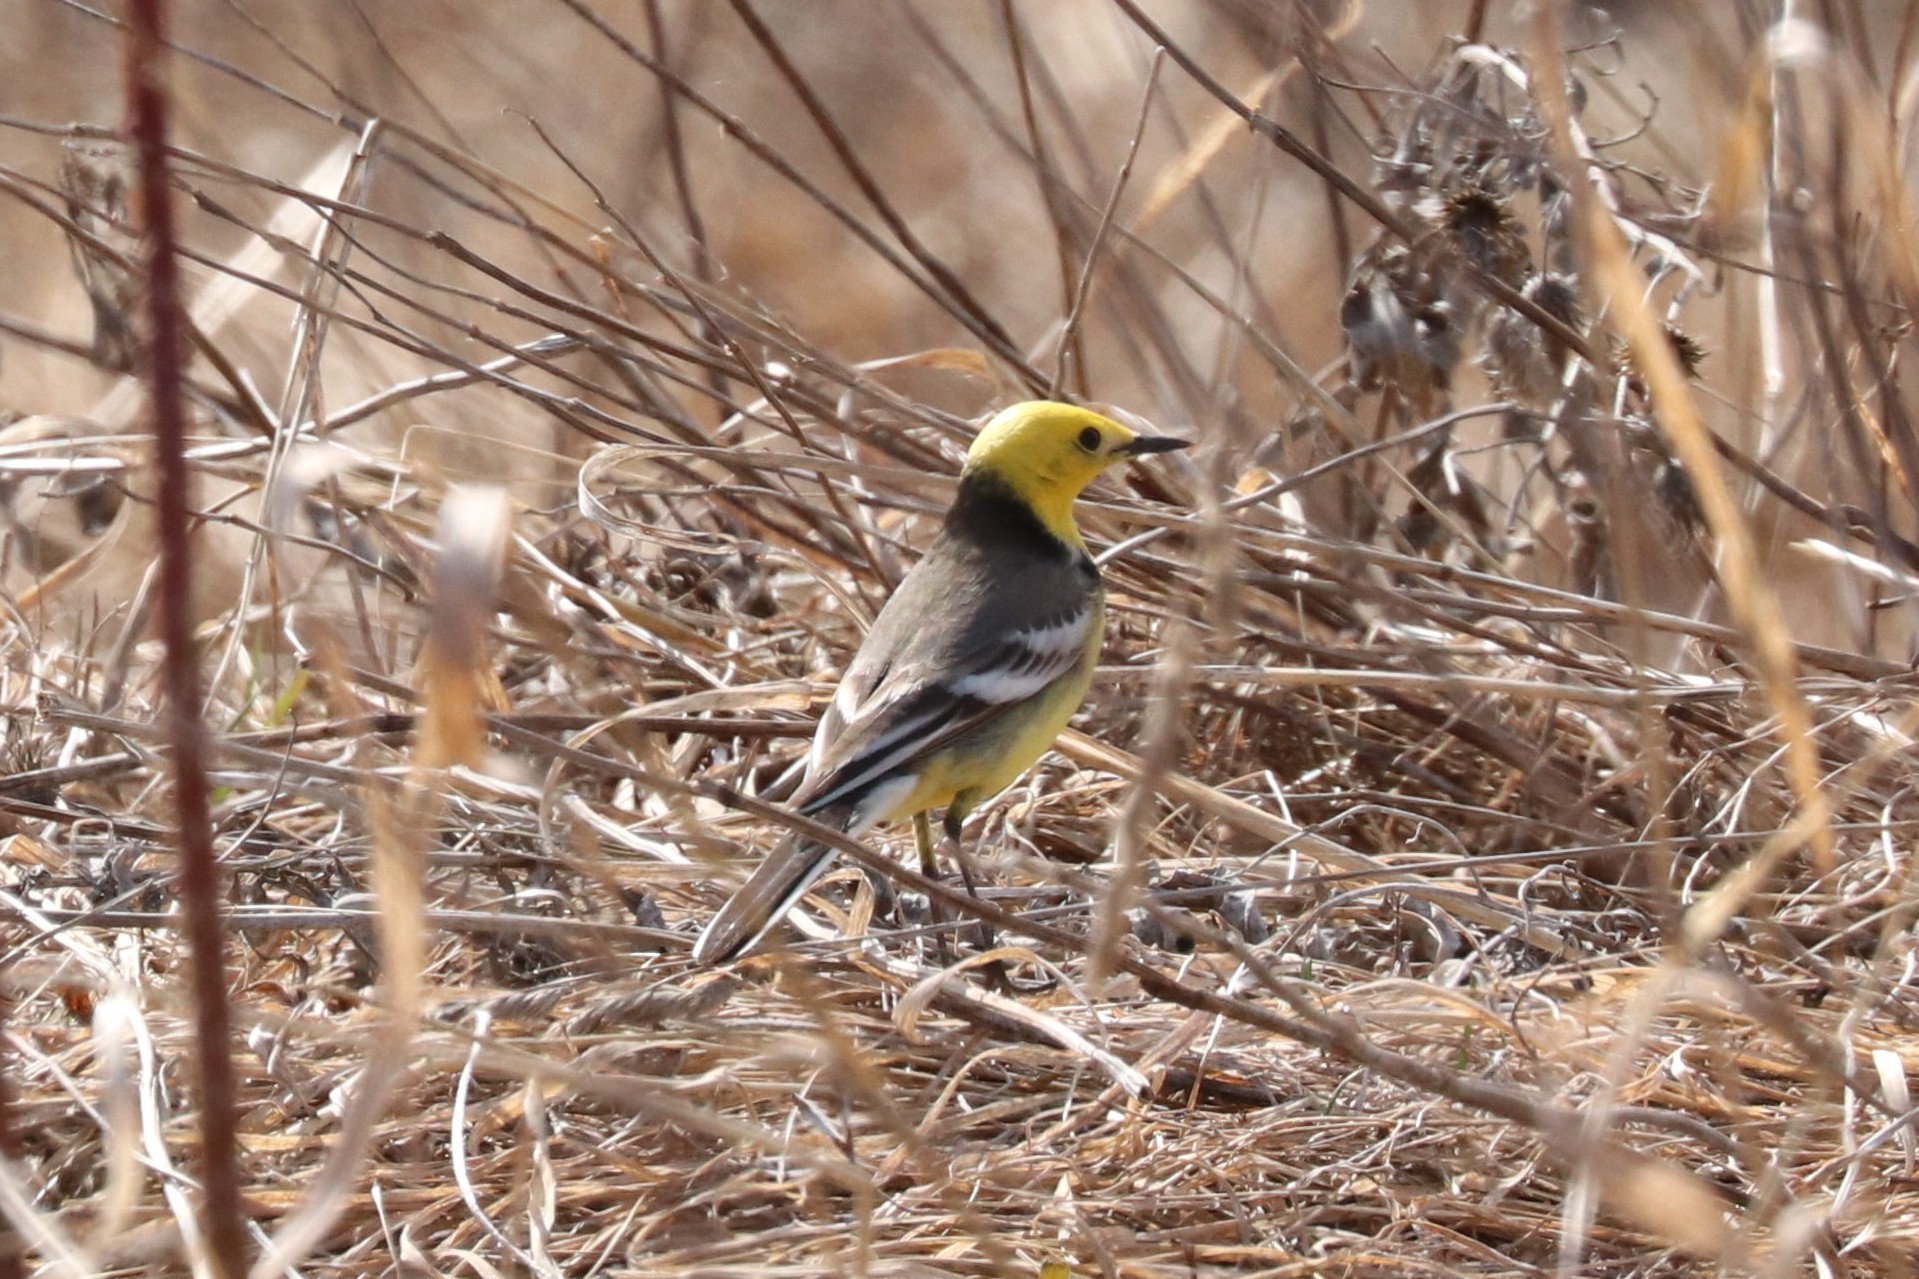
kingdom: Animalia
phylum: Chordata
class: Aves
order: Passeriformes
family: Motacillidae
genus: Motacilla
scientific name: Motacilla citreola
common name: Citrine wagtail
